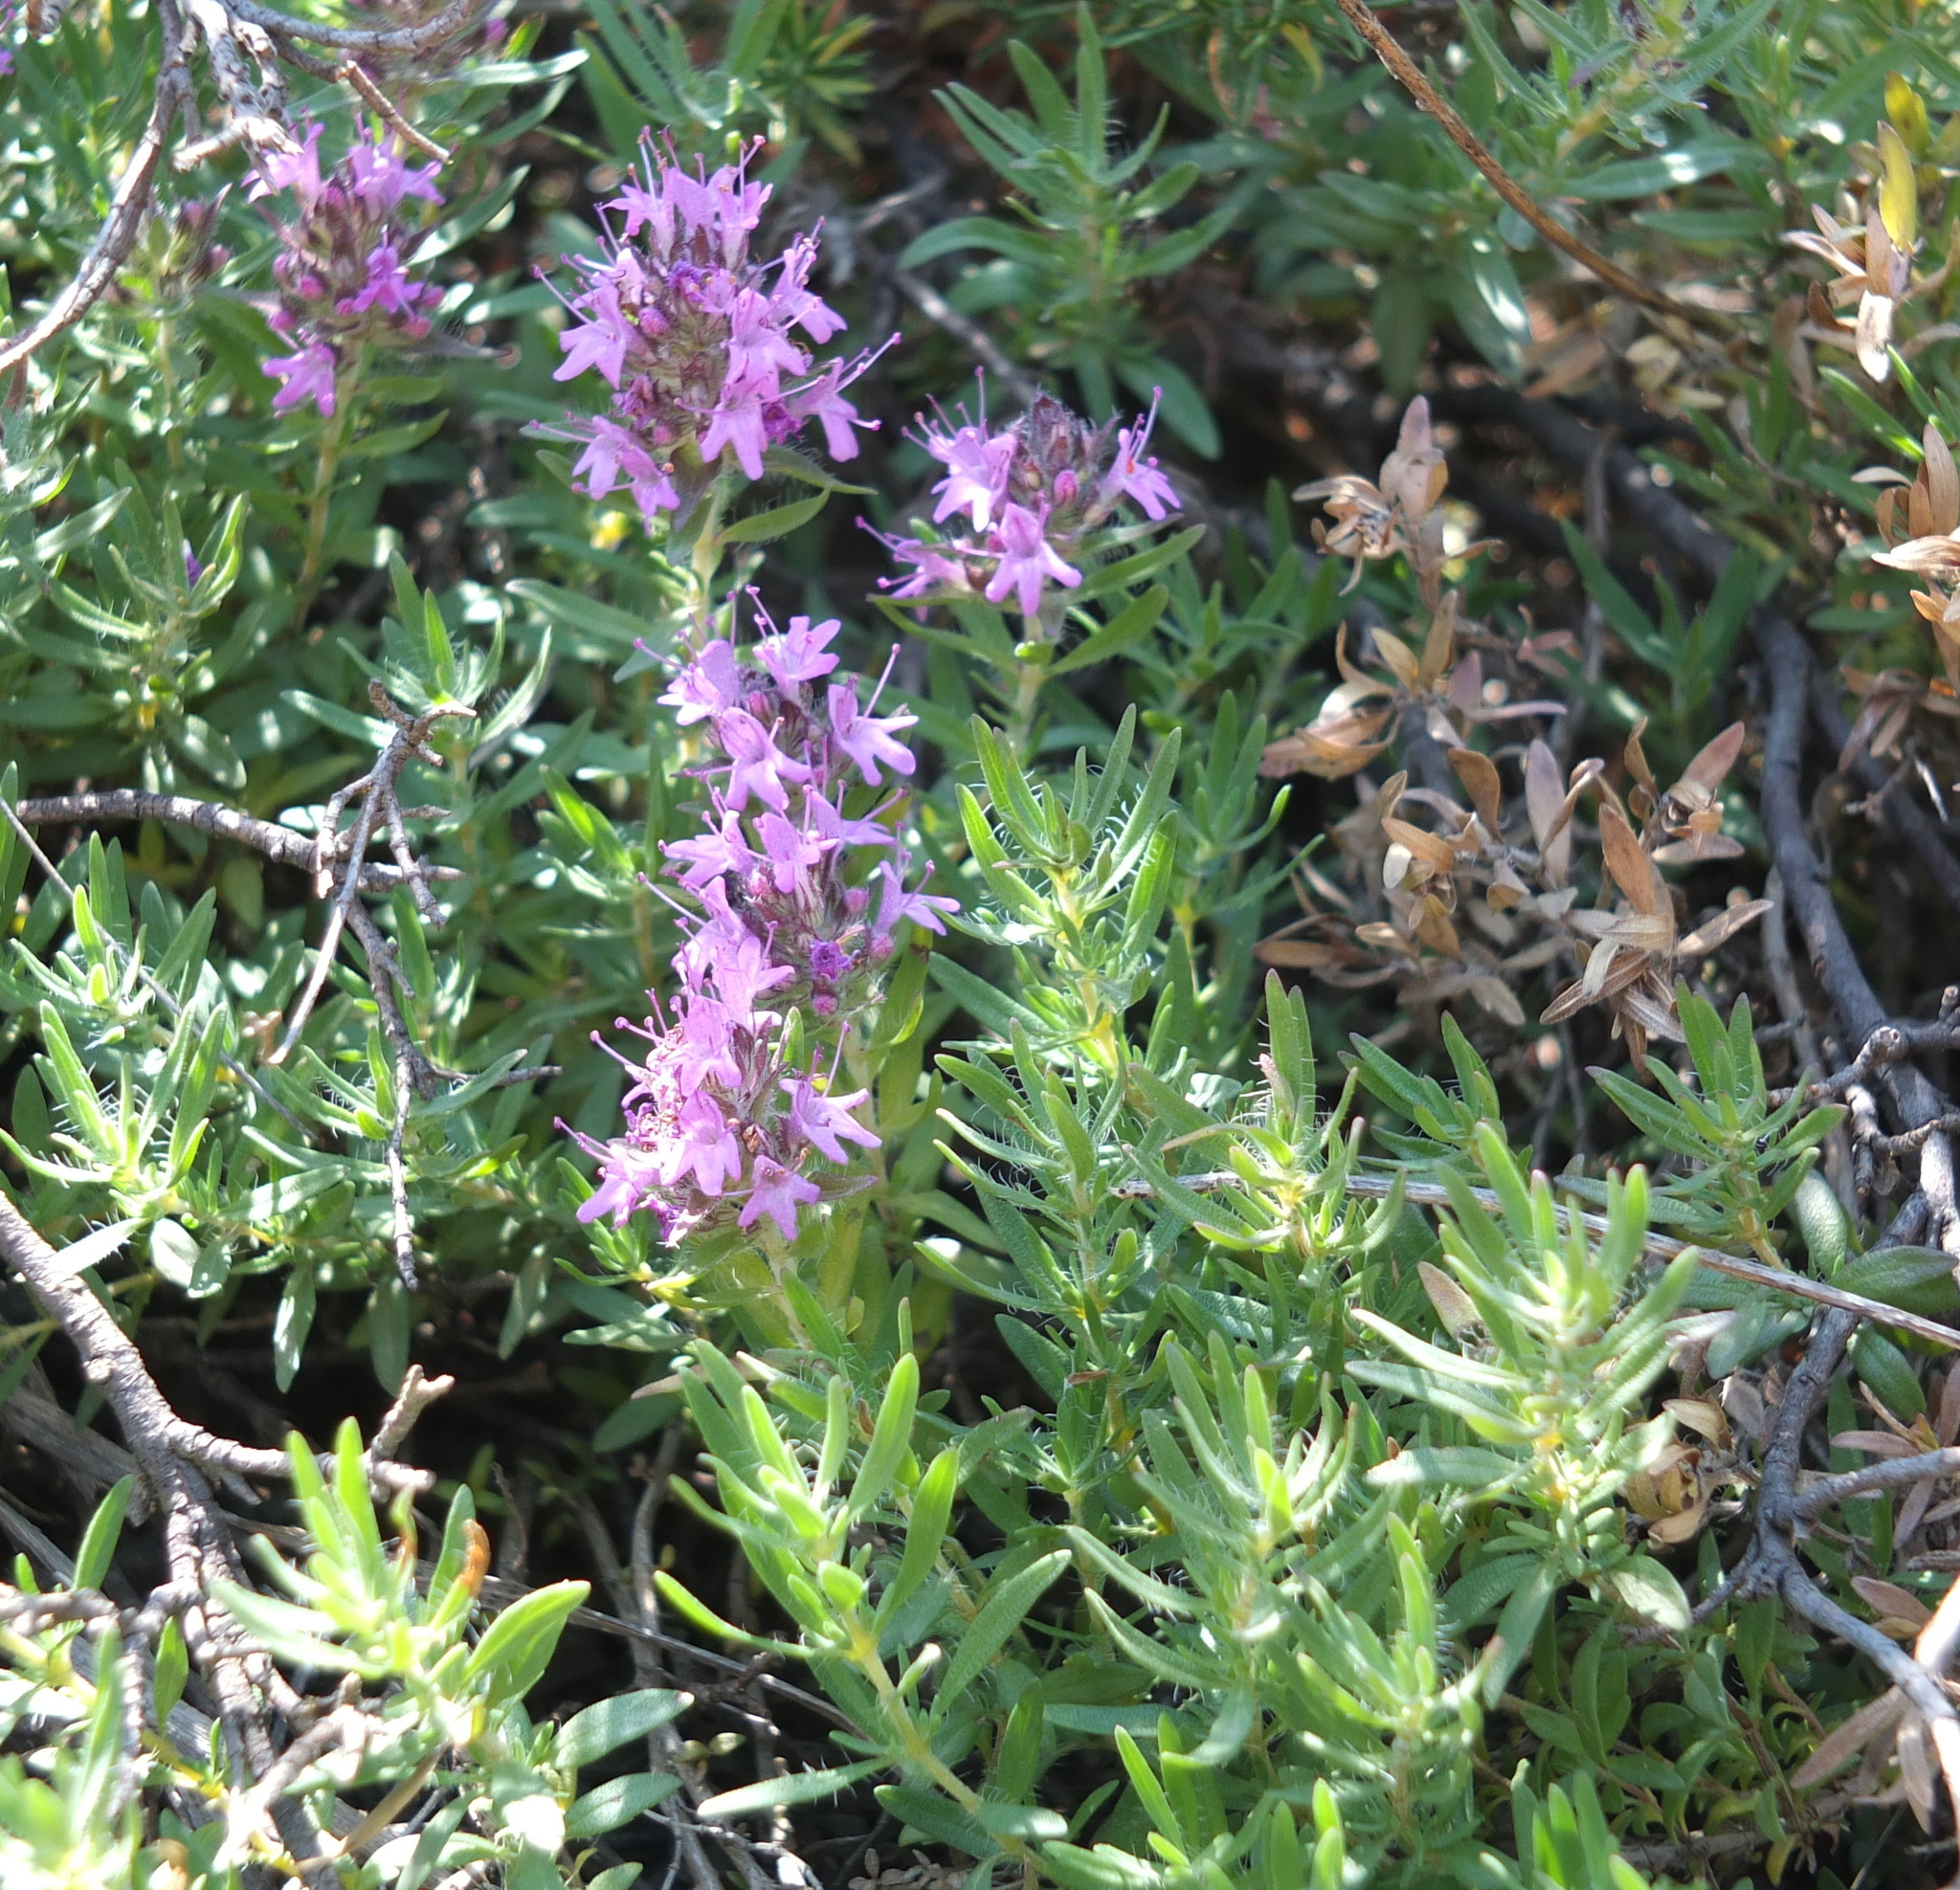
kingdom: Plantae
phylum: Tracheophyta
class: Magnoliopsida
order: Lamiales
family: Lamiaceae
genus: Thymus
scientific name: Thymus numidicus
